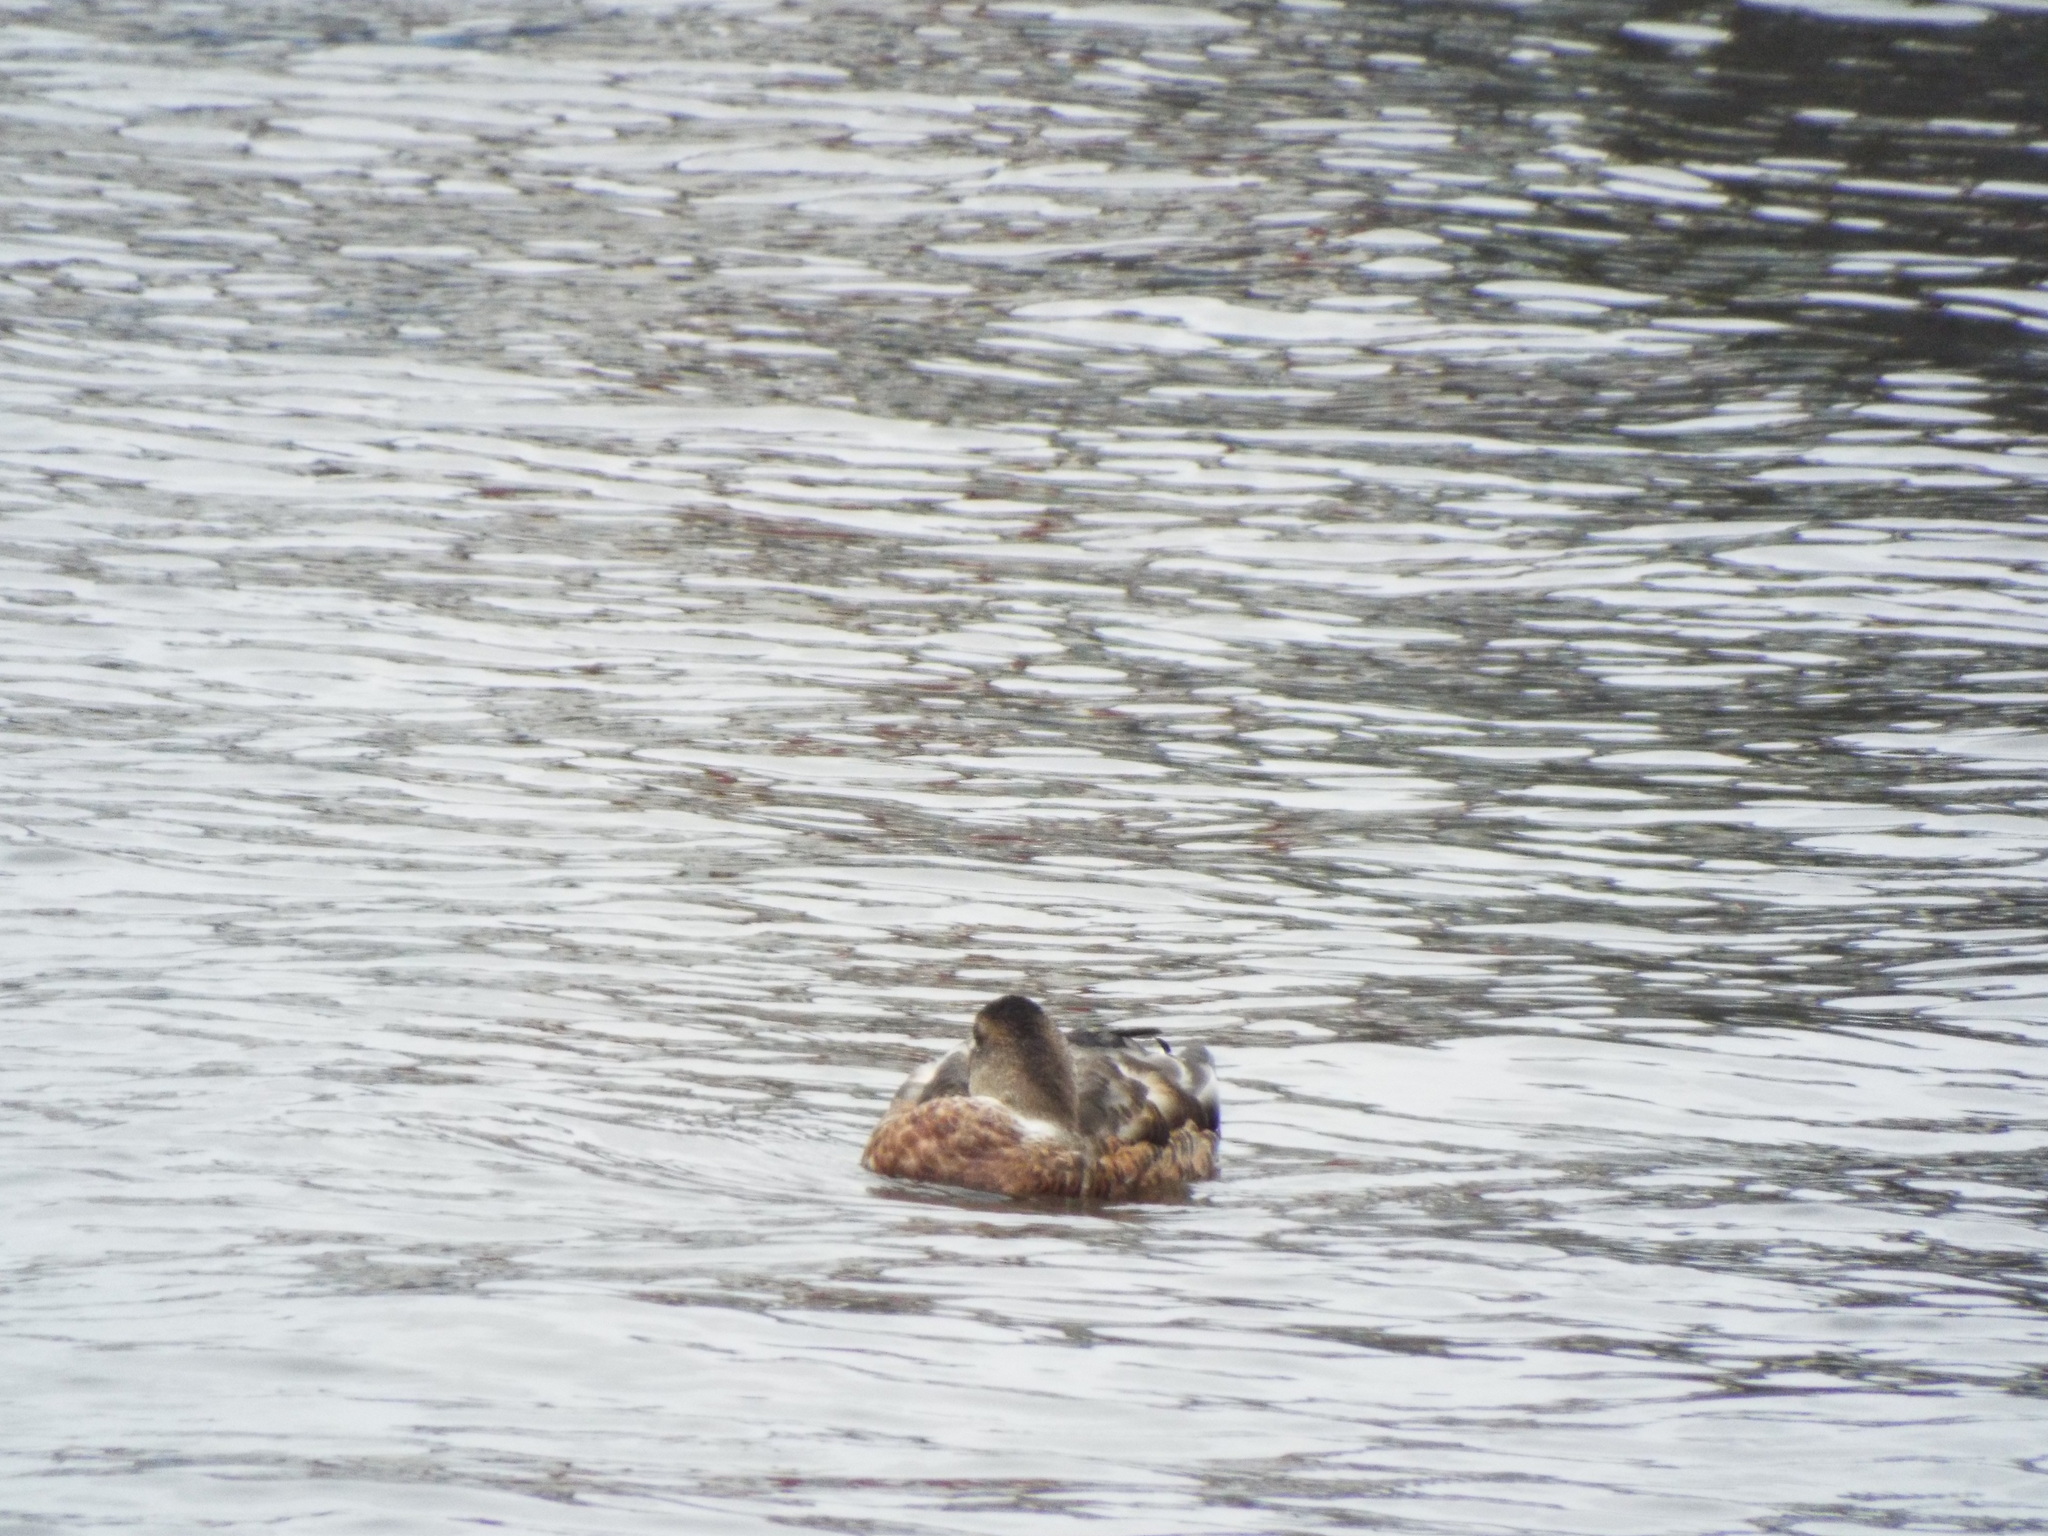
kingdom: Animalia
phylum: Chordata
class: Aves
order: Anseriformes
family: Anatidae
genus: Anas
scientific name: Anas platyrhynchos
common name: Mallard
